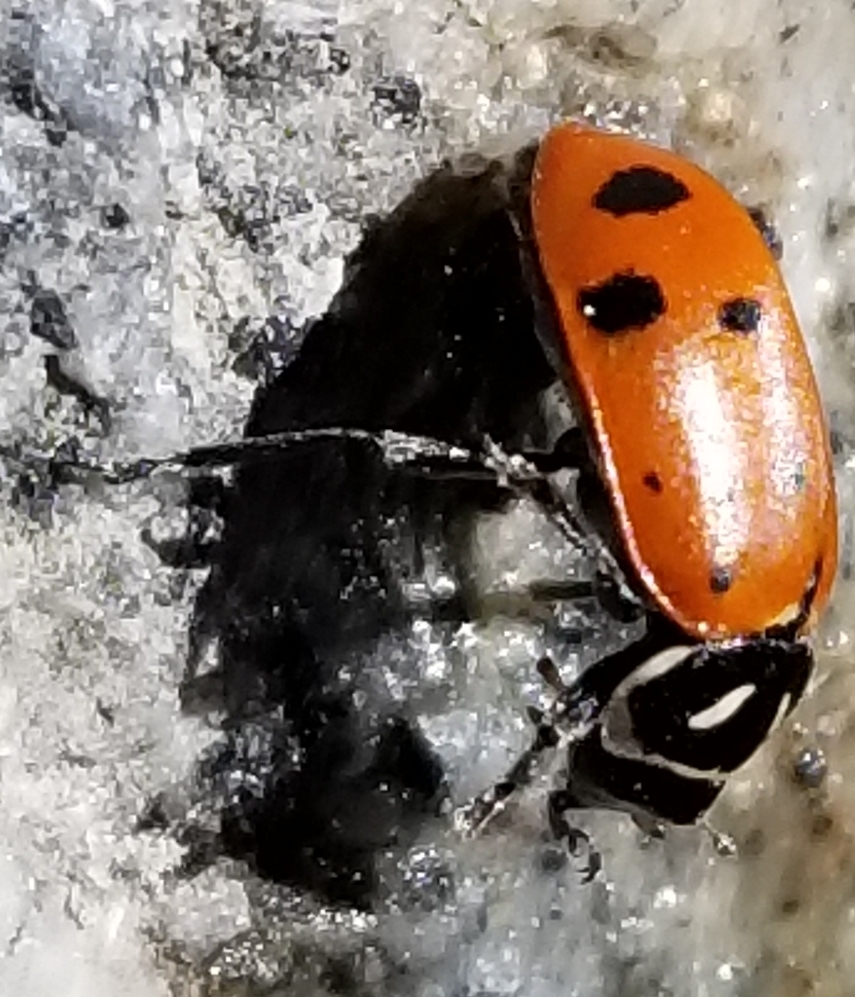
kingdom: Animalia
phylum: Arthropoda
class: Insecta
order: Coleoptera
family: Coccinellidae
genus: Hippodamia
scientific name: Hippodamia convergens
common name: Convergent lady beetle
